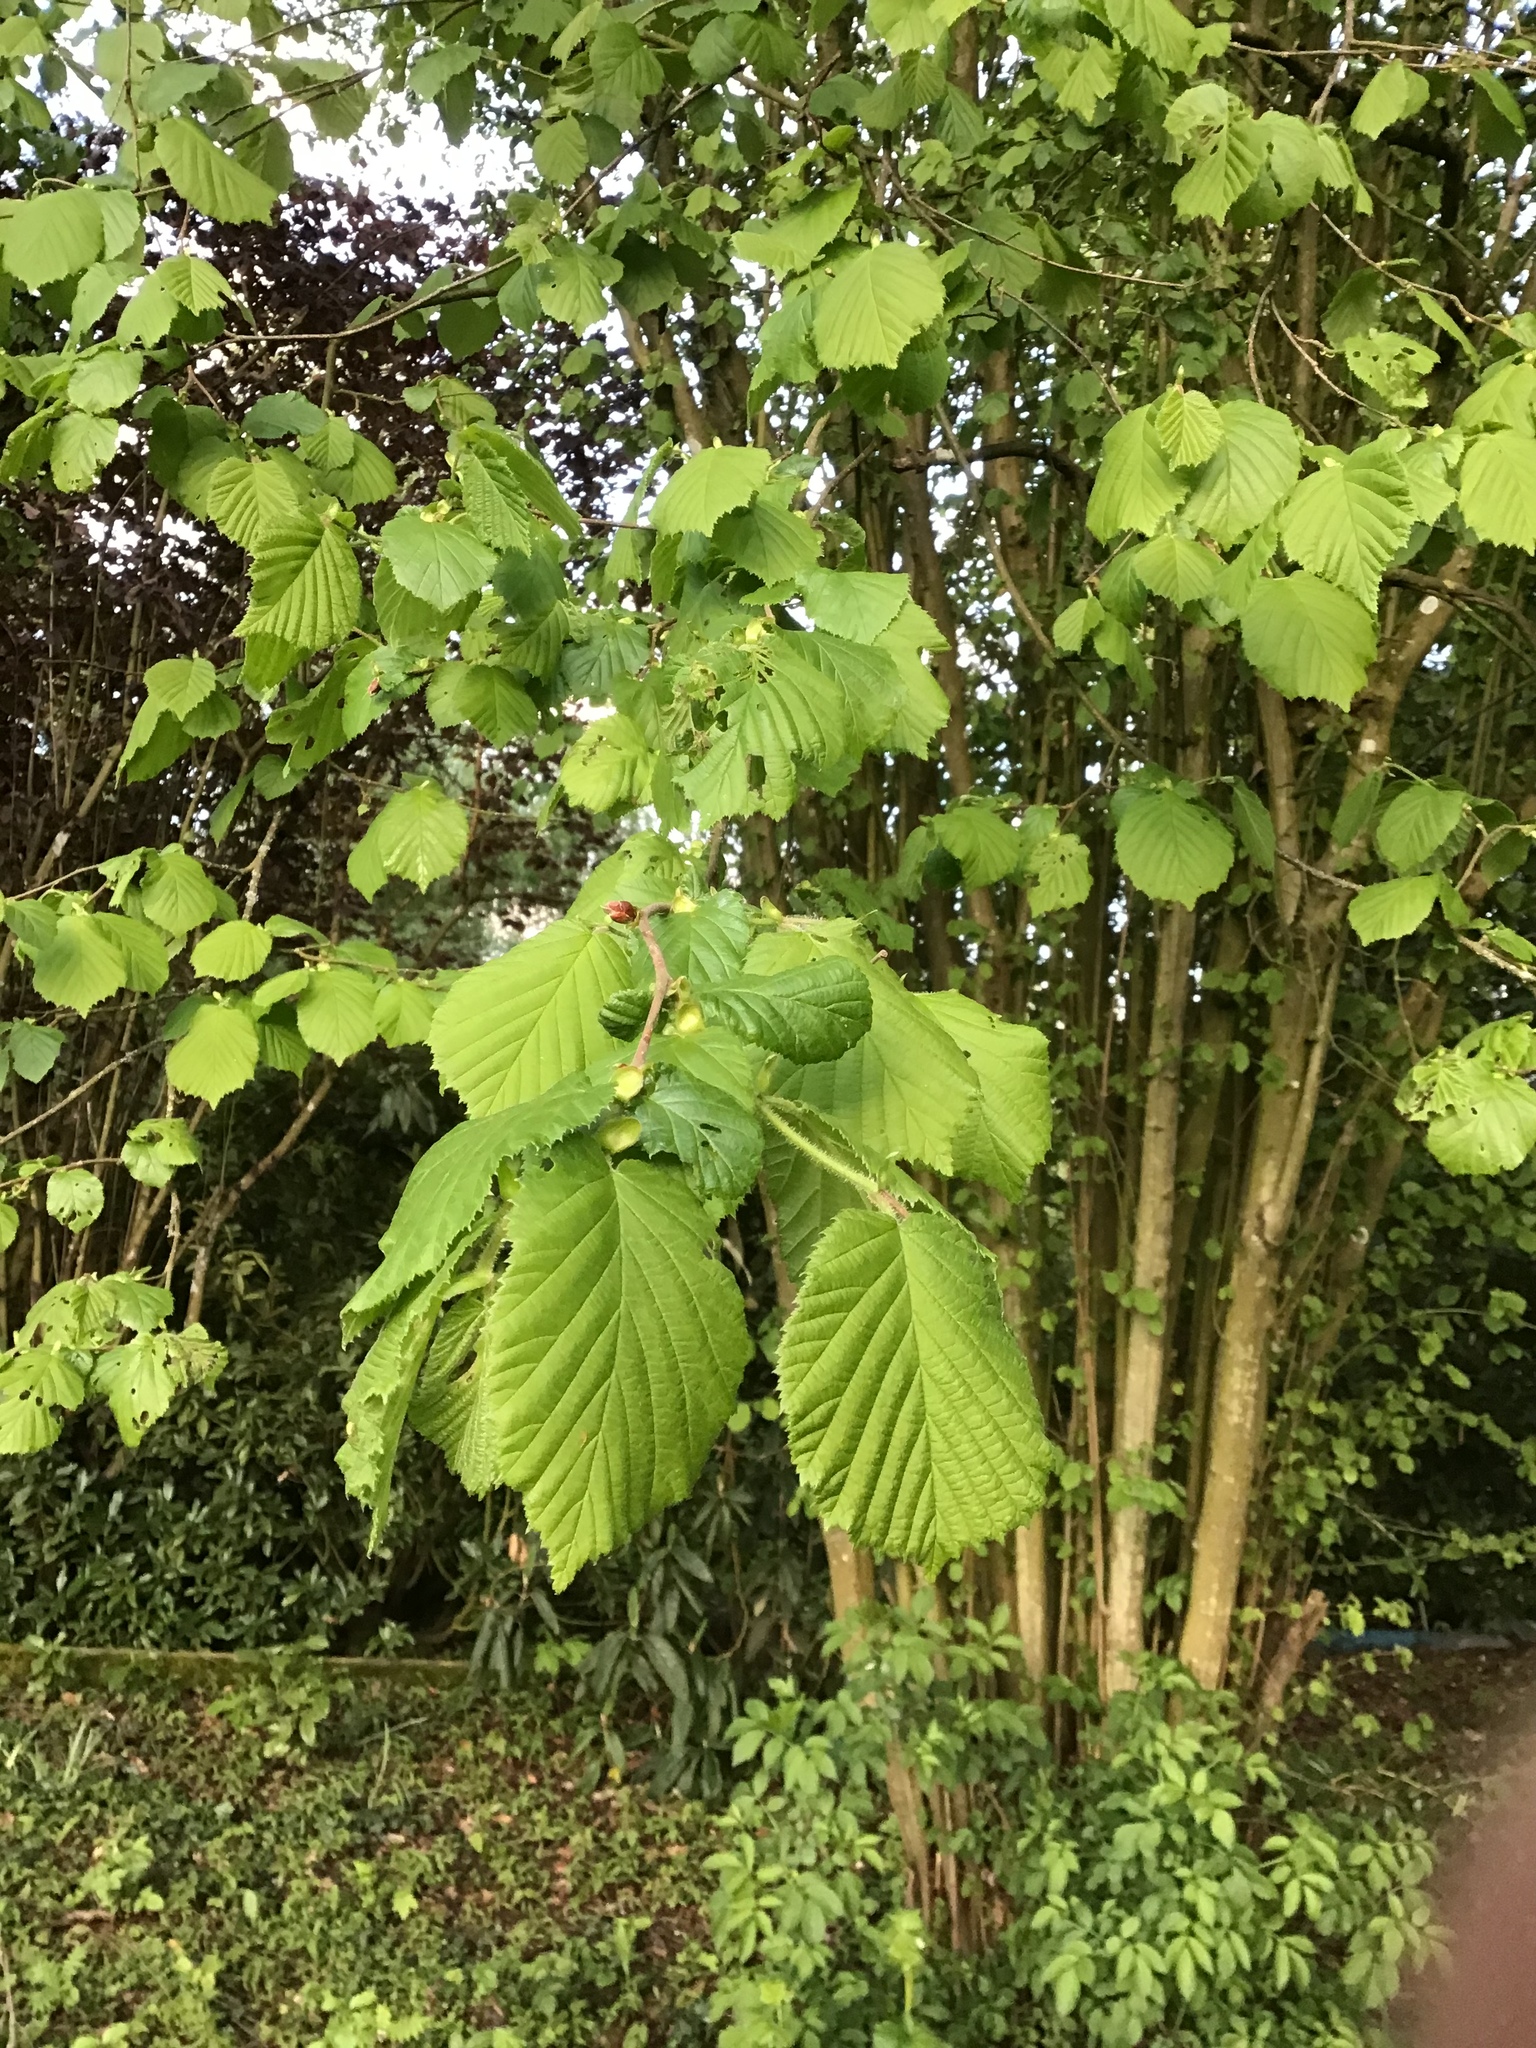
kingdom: Plantae
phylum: Tracheophyta
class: Magnoliopsida
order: Fagales
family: Betulaceae
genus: Corylus
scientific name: Corylus avellana
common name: European hazel
